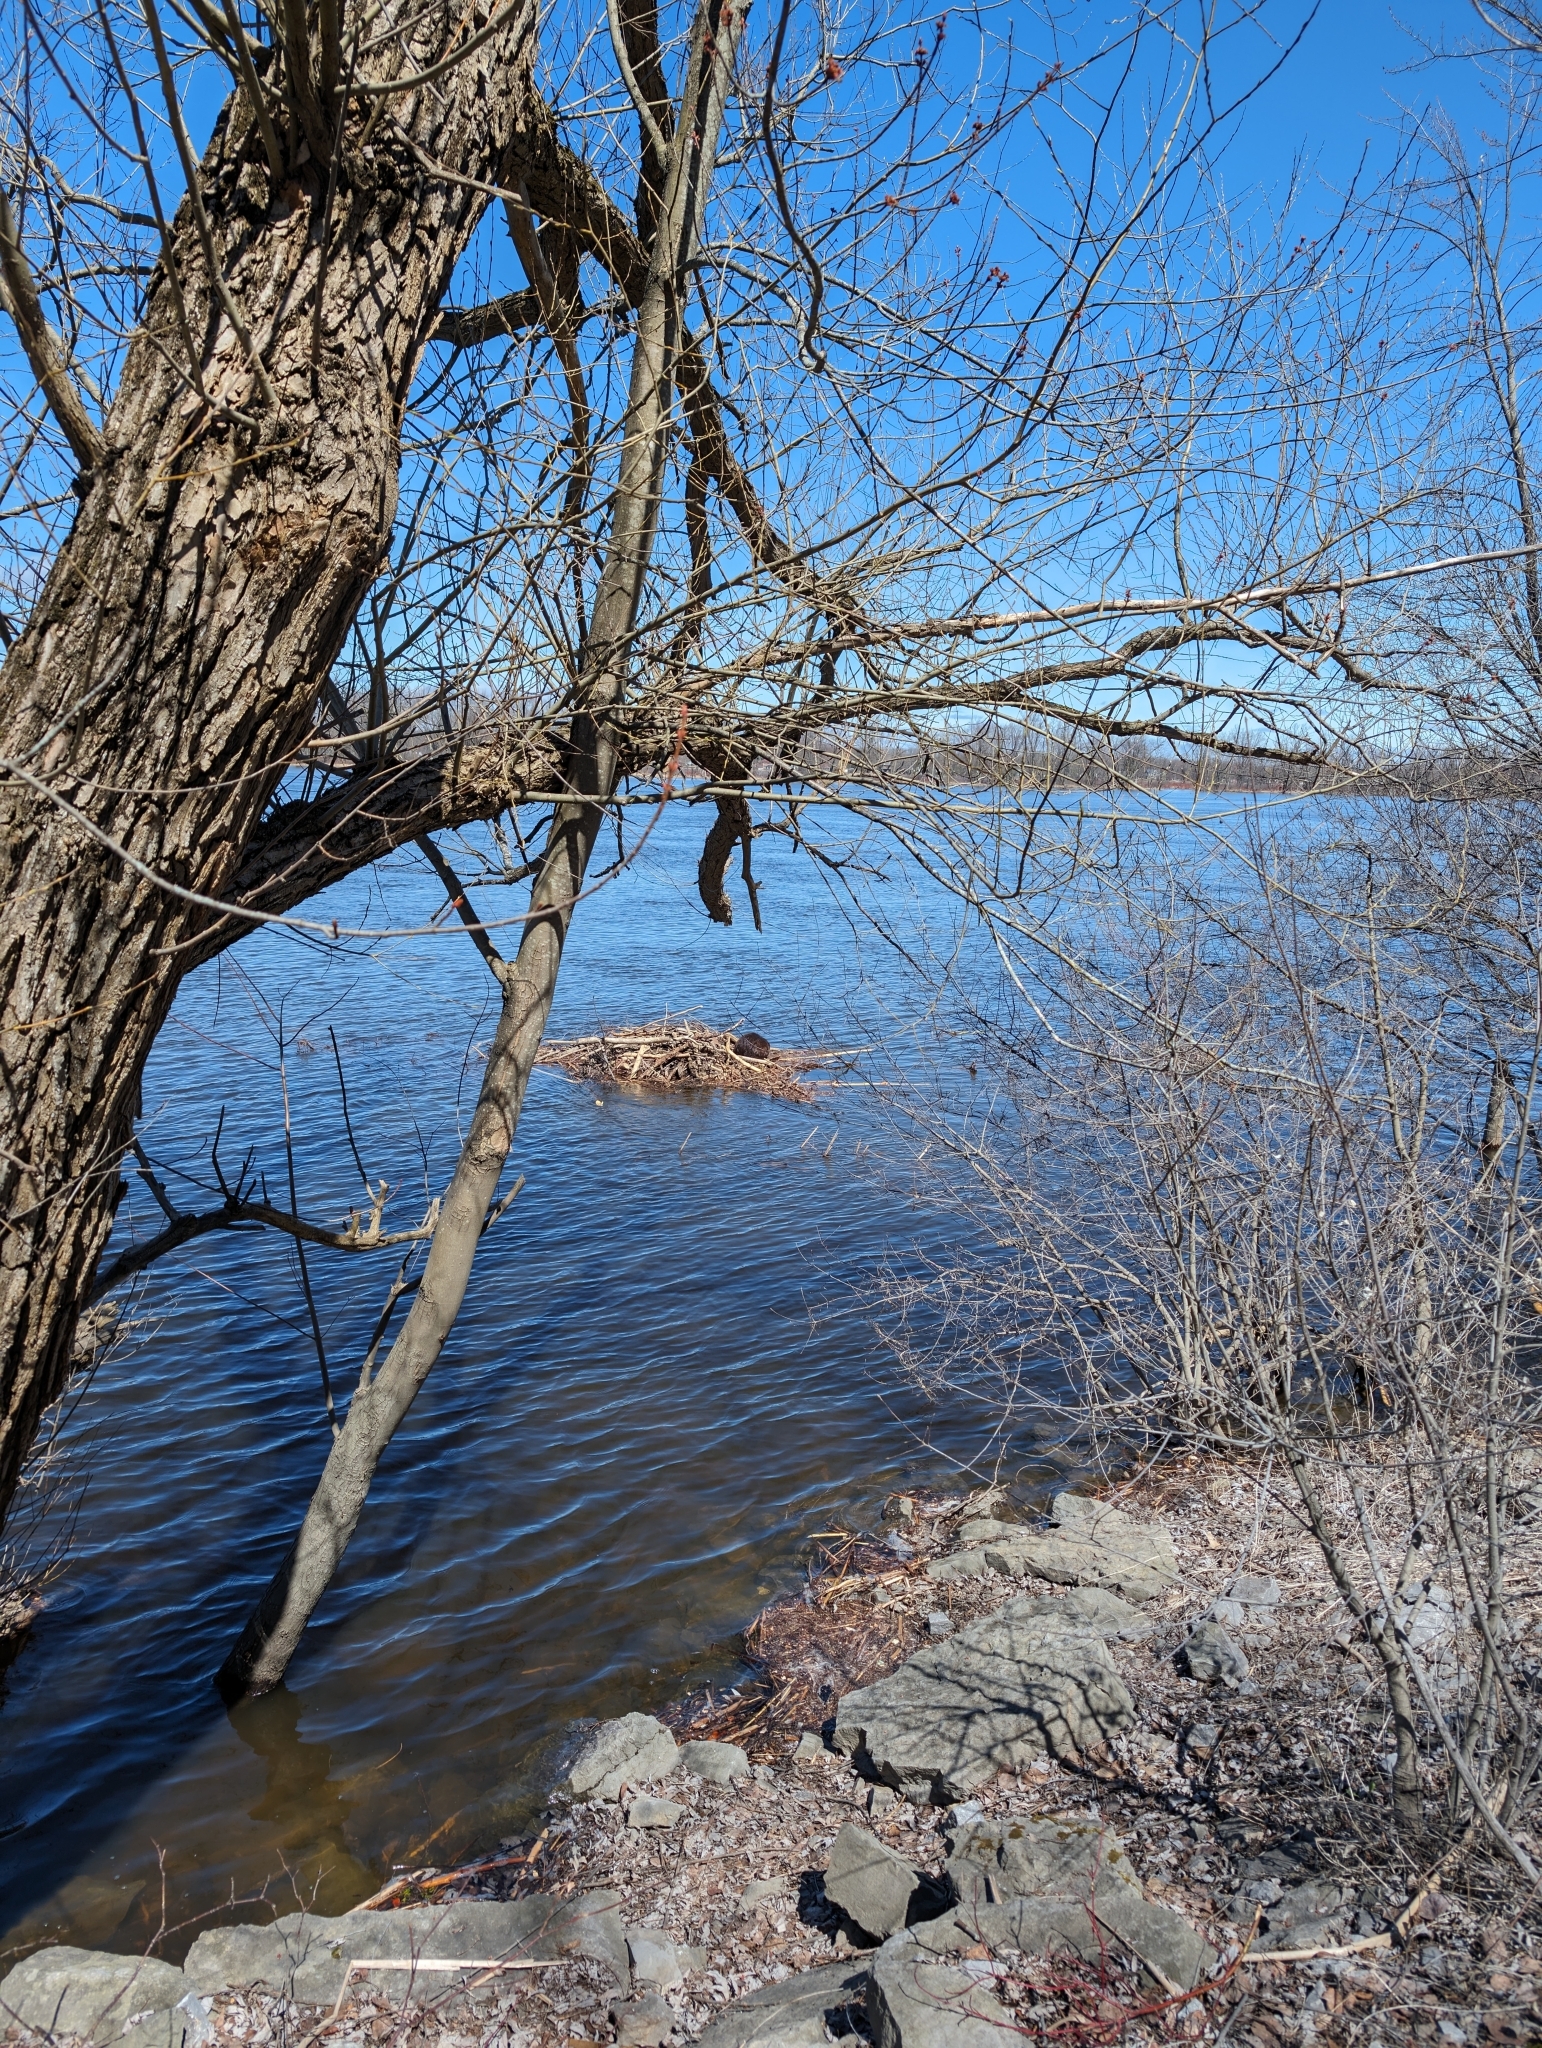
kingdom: Animalia
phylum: Chordata
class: Mammalia
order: Rodentia
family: Castoridae
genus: Castor
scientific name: Castor canadensis
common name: American beaver
